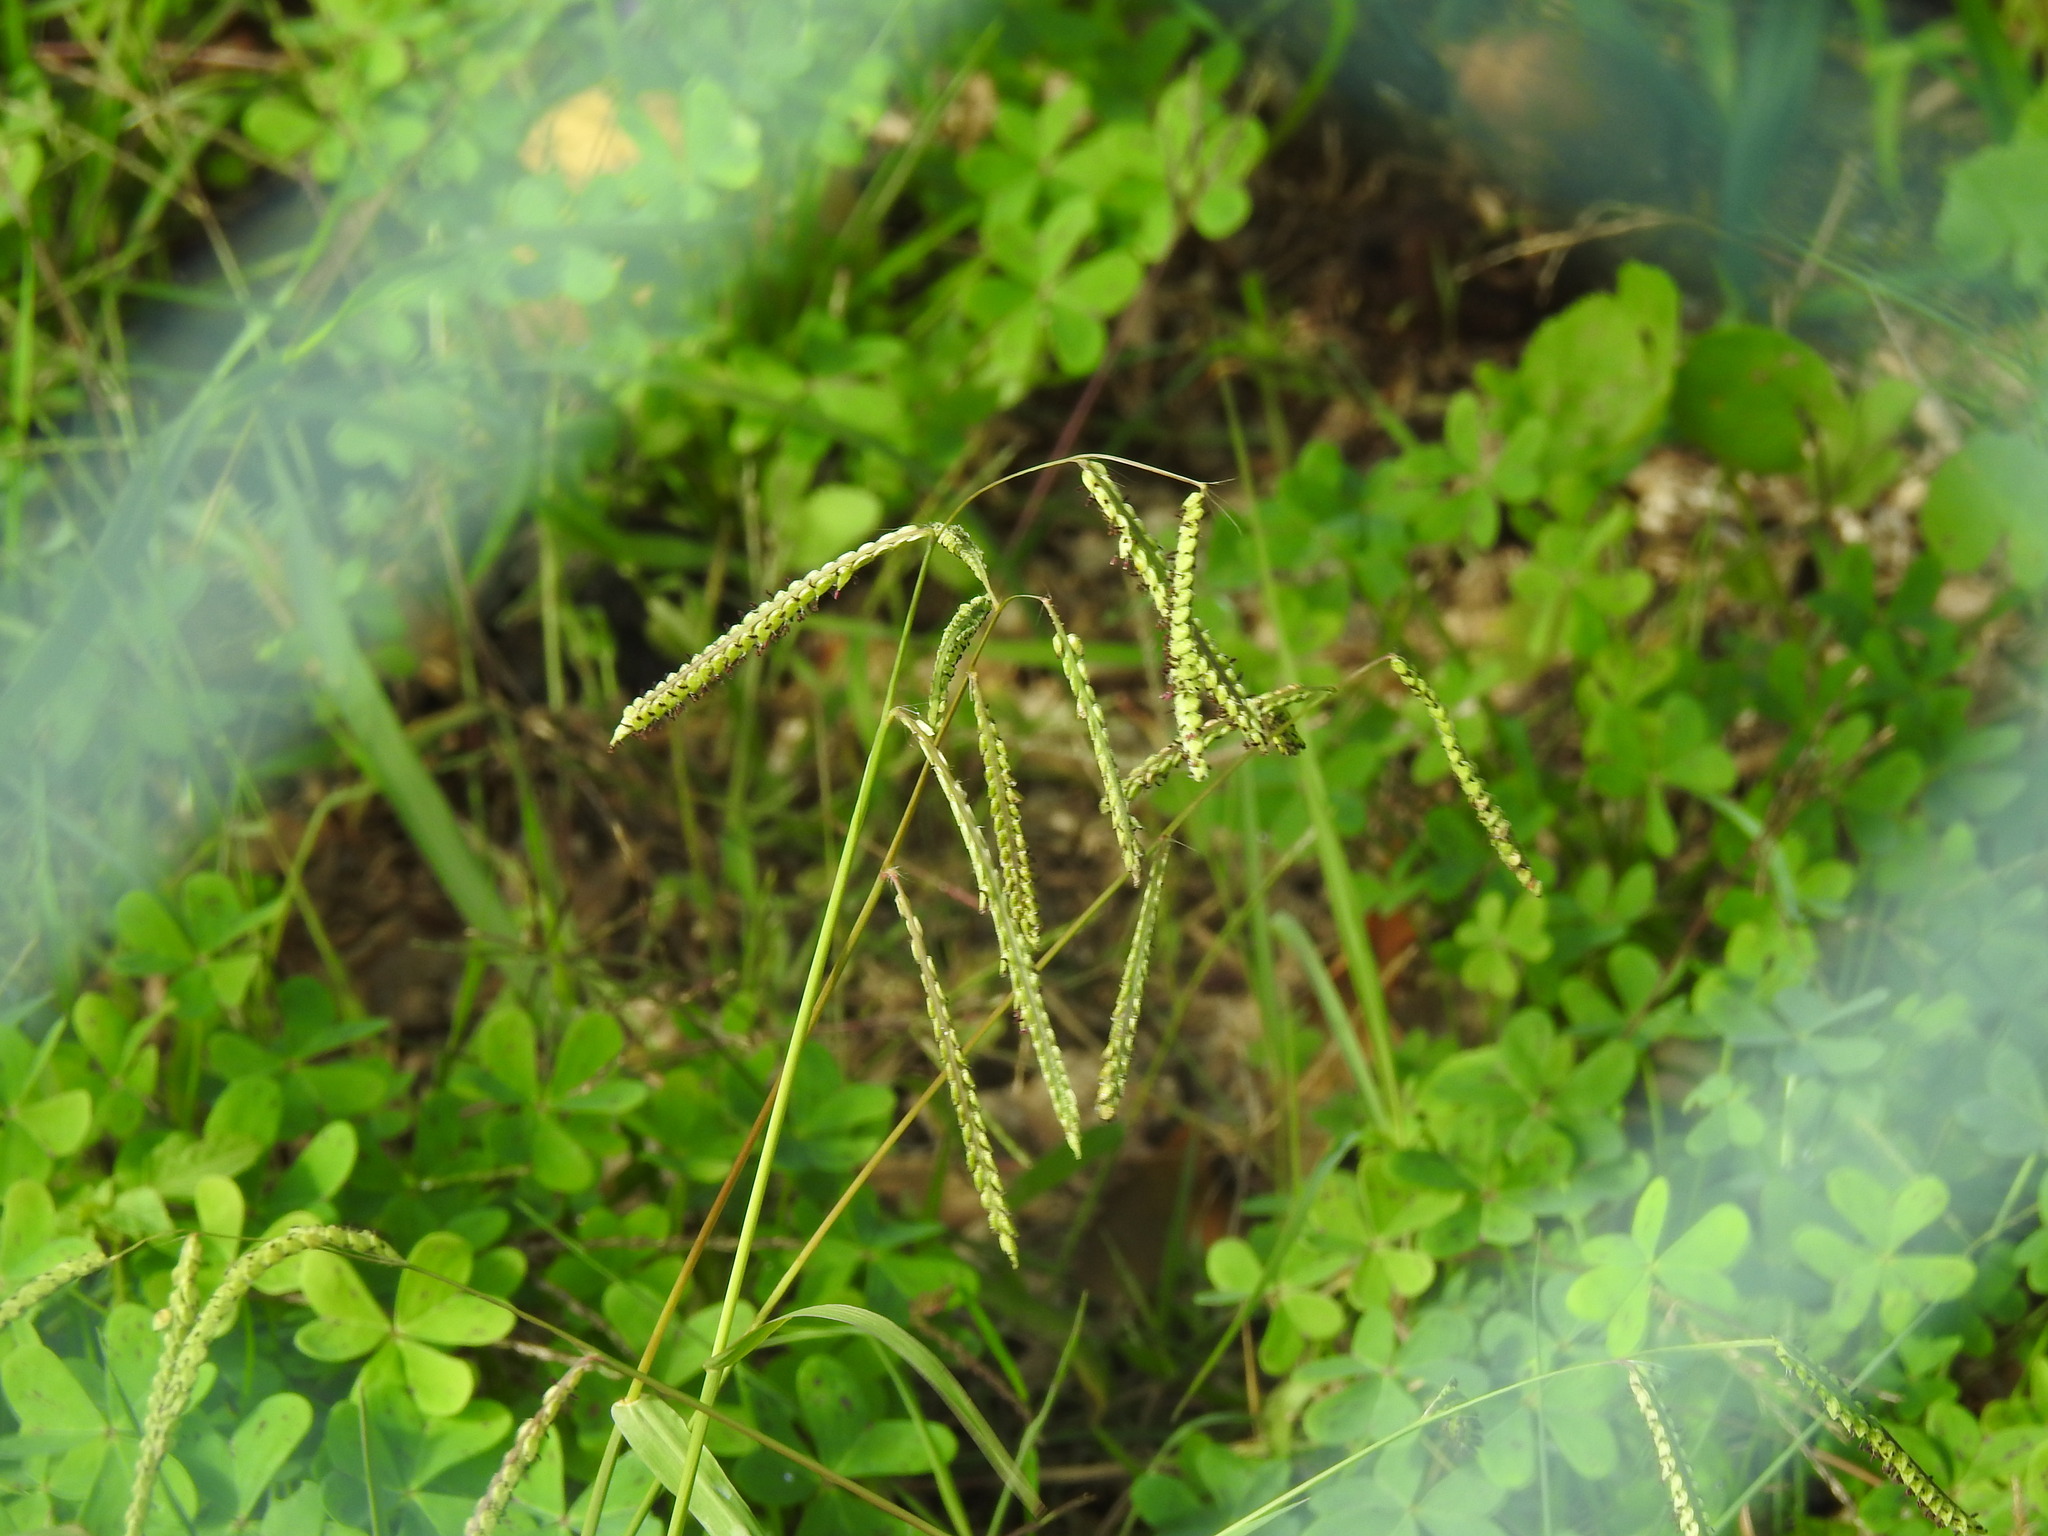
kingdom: Plantae
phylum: Tracheophyta
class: Liliopsida
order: Poales
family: Poaceae
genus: Paspalum
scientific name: Paspalum dilatatum
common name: Dallisgrass
